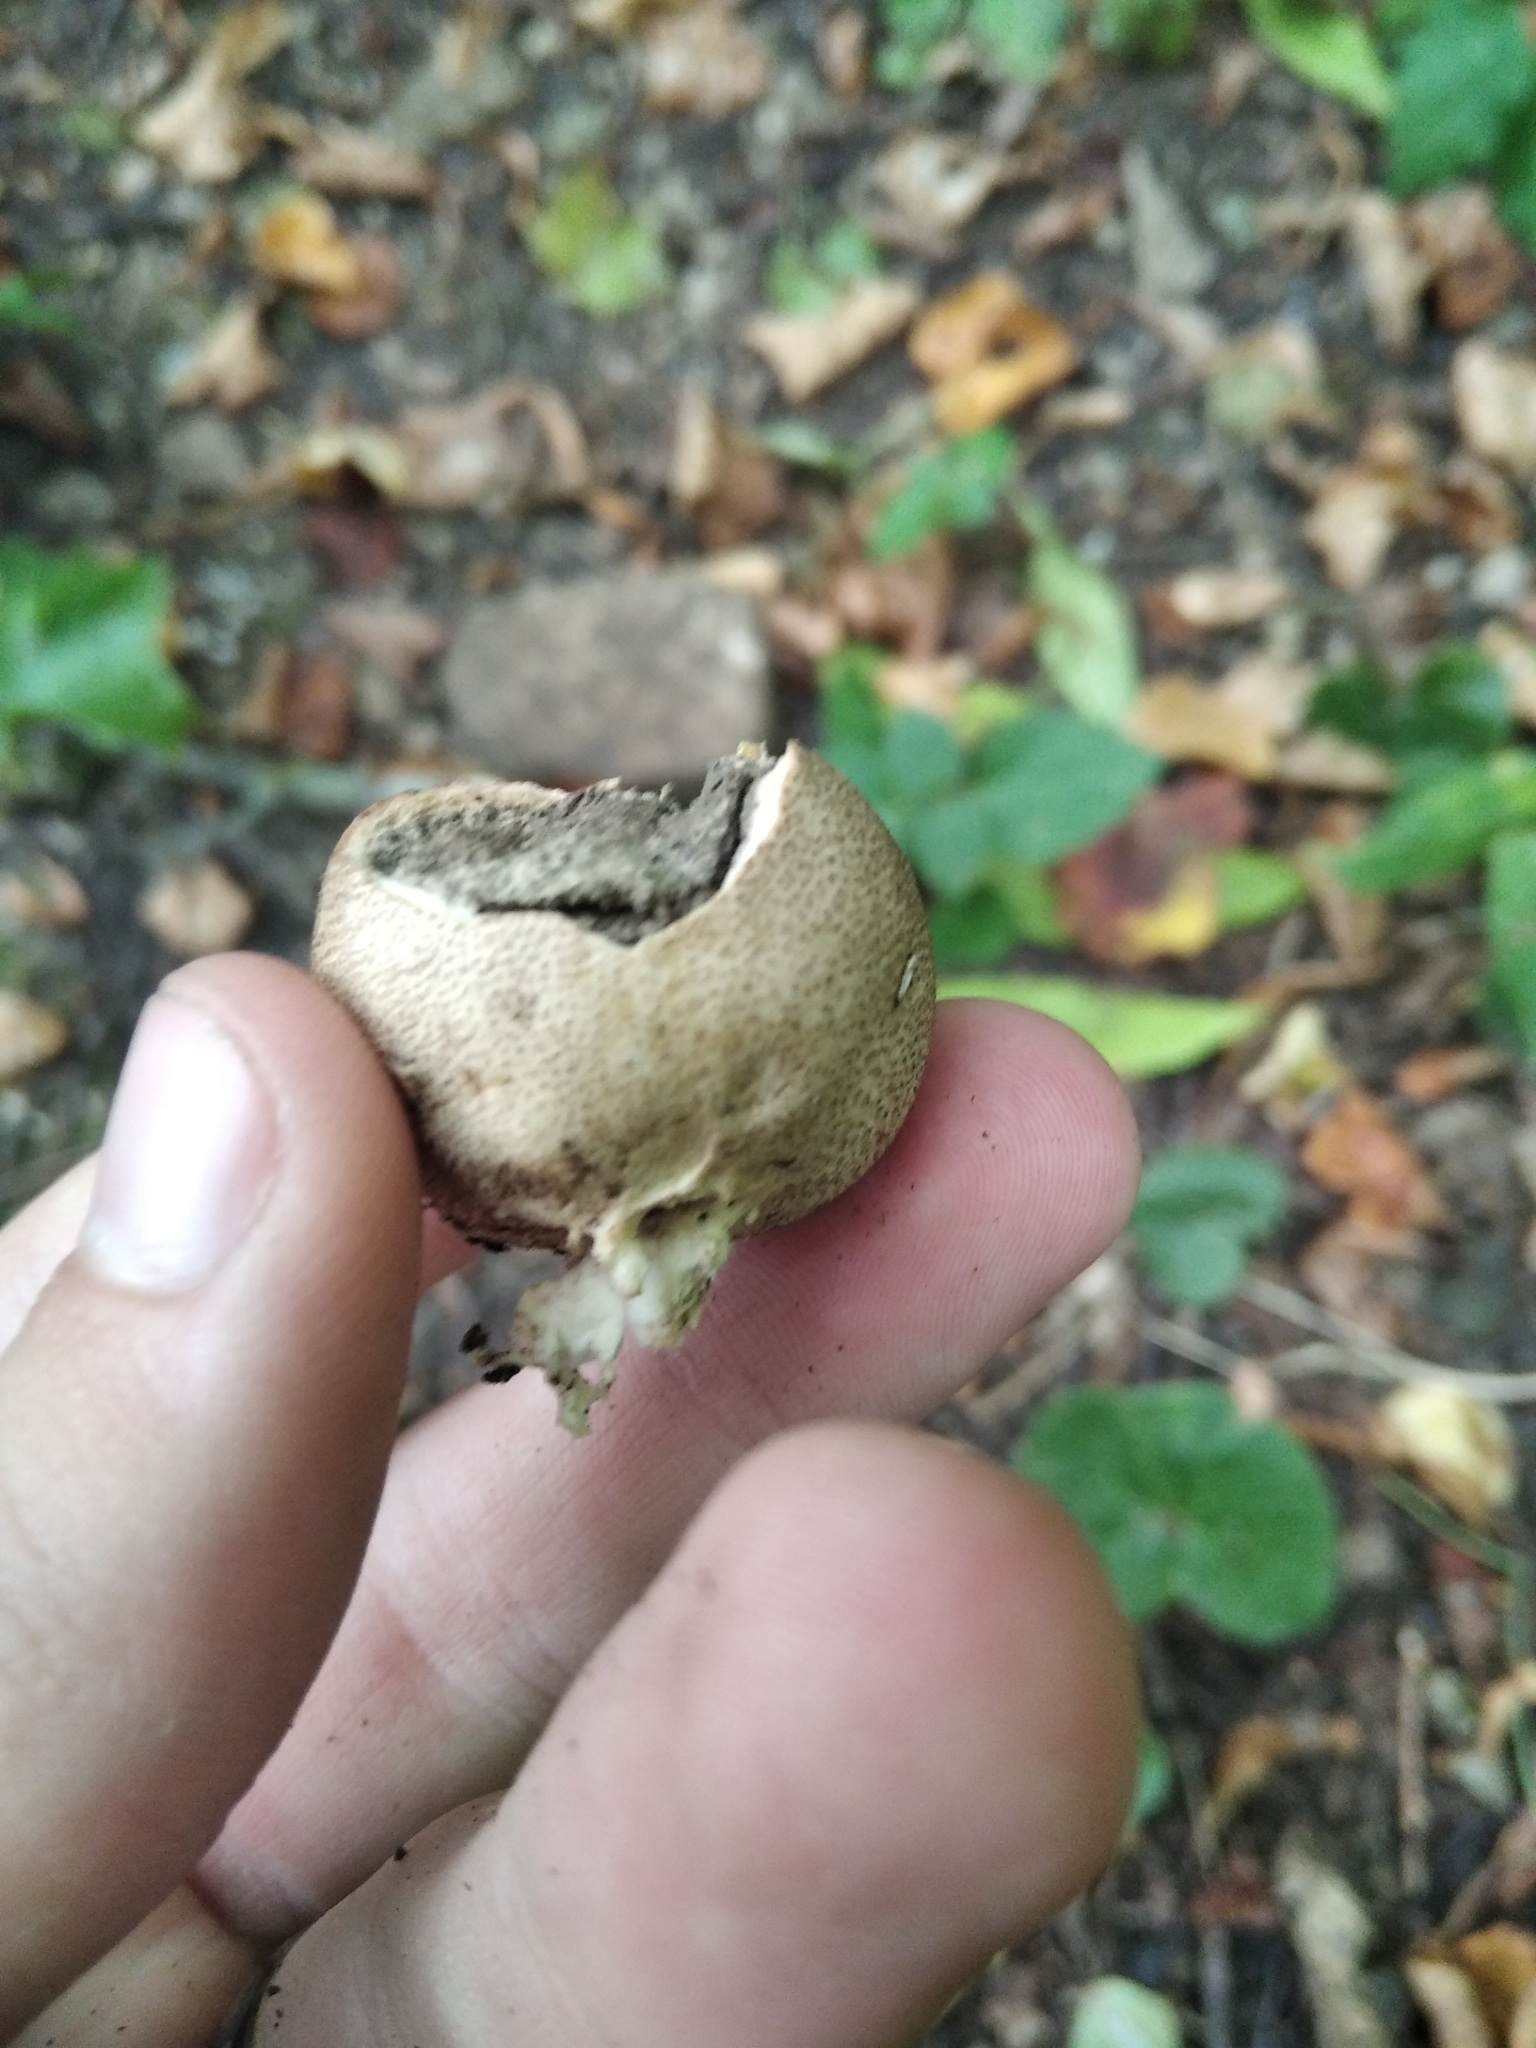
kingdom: Fungi
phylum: Basidiomycota
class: Agaricomycetes
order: Boletales
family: Sclerodermataceae
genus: Scleroderma
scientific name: Scleroderma citrinum
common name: Common earthball
